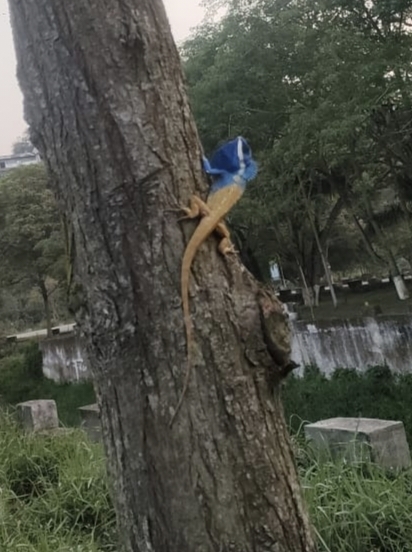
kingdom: Animalia
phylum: Chordata
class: Squamata
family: Agamidae
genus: Calotes
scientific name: Calotes mystaceus
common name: Indo-chinese forest lizard
